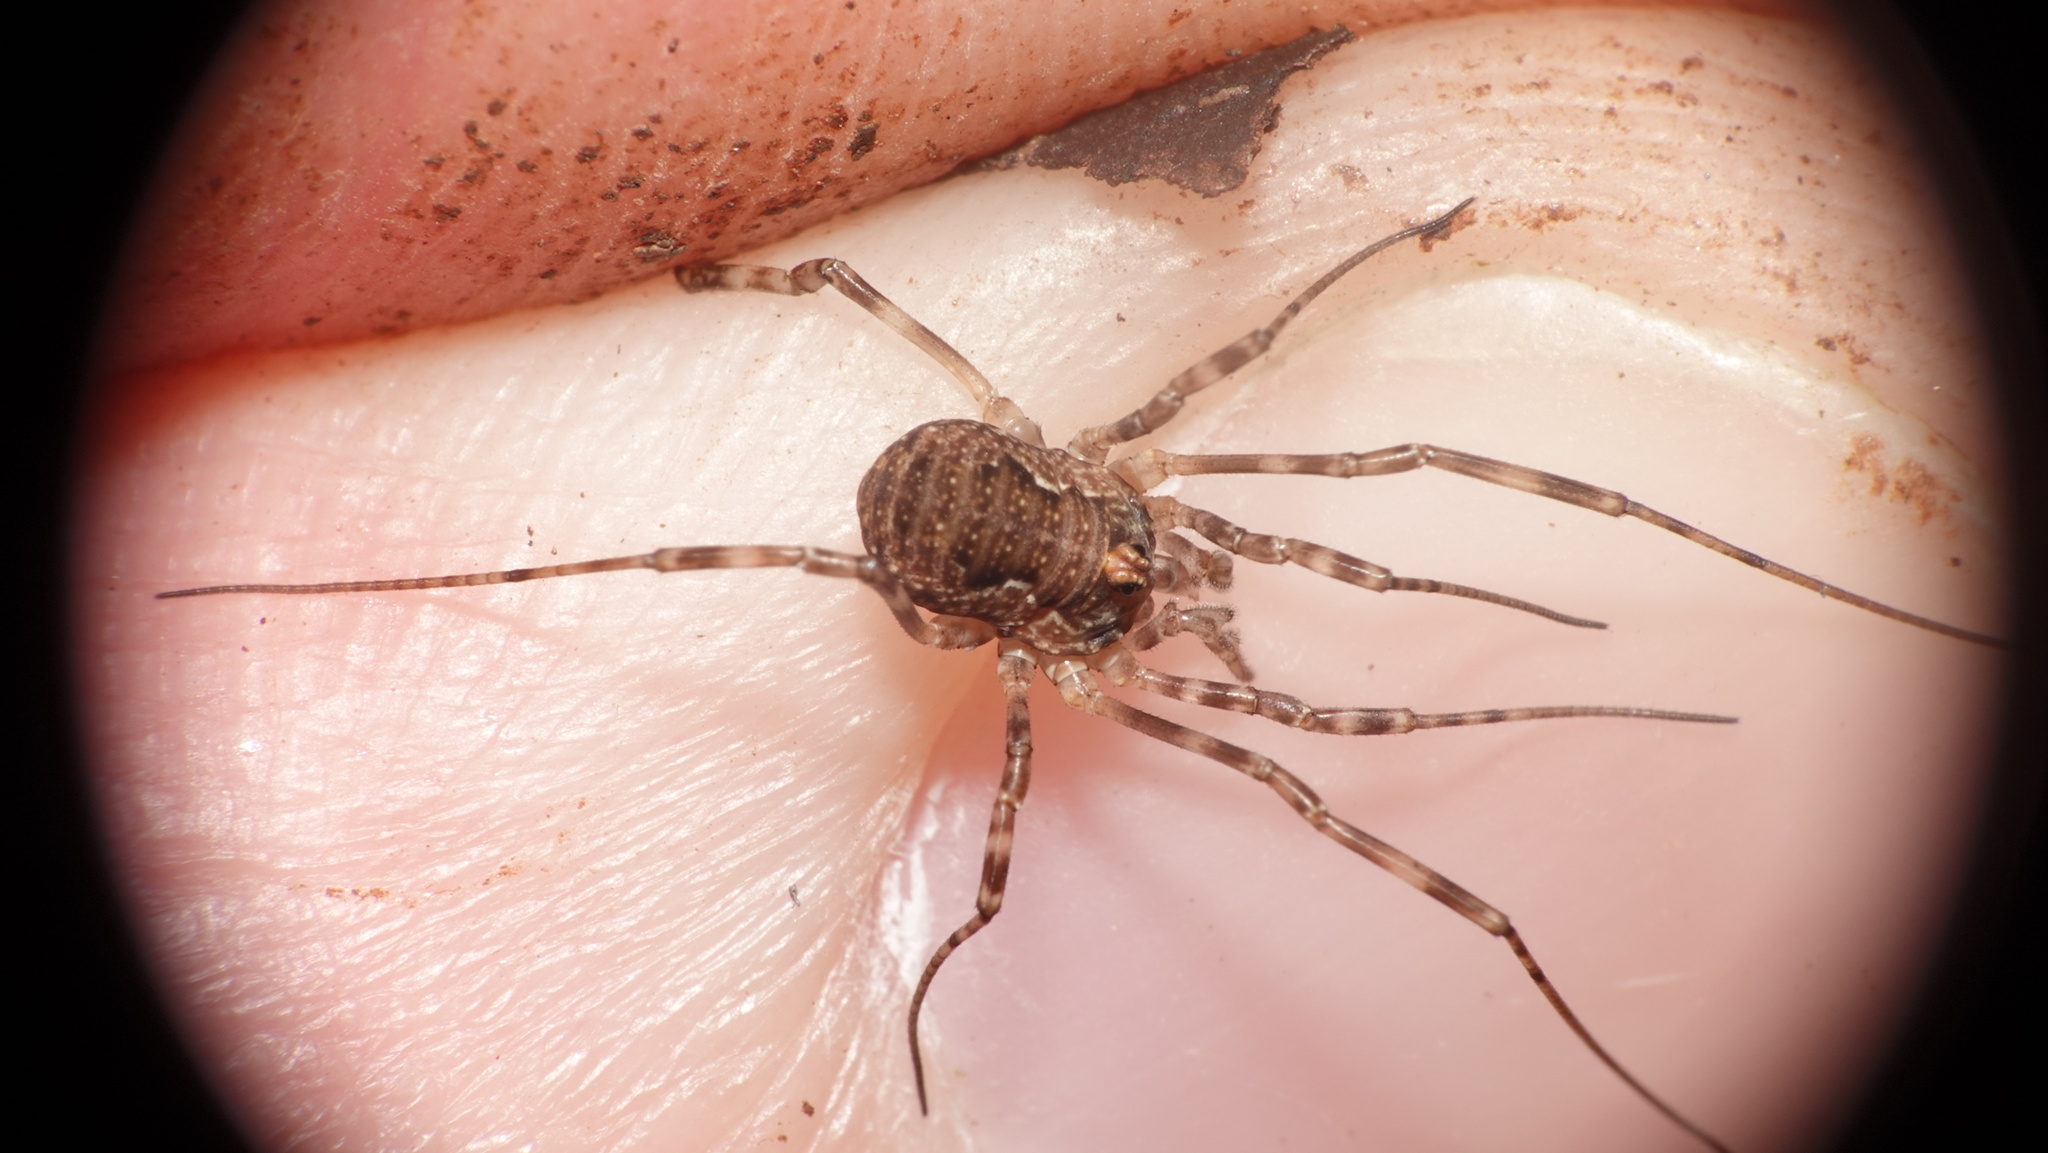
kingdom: Animalia
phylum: Arthropoda
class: Arachnida
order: Opiliones
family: Phalangiidae
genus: Dasylobus
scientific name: Dasylobus graniferus
